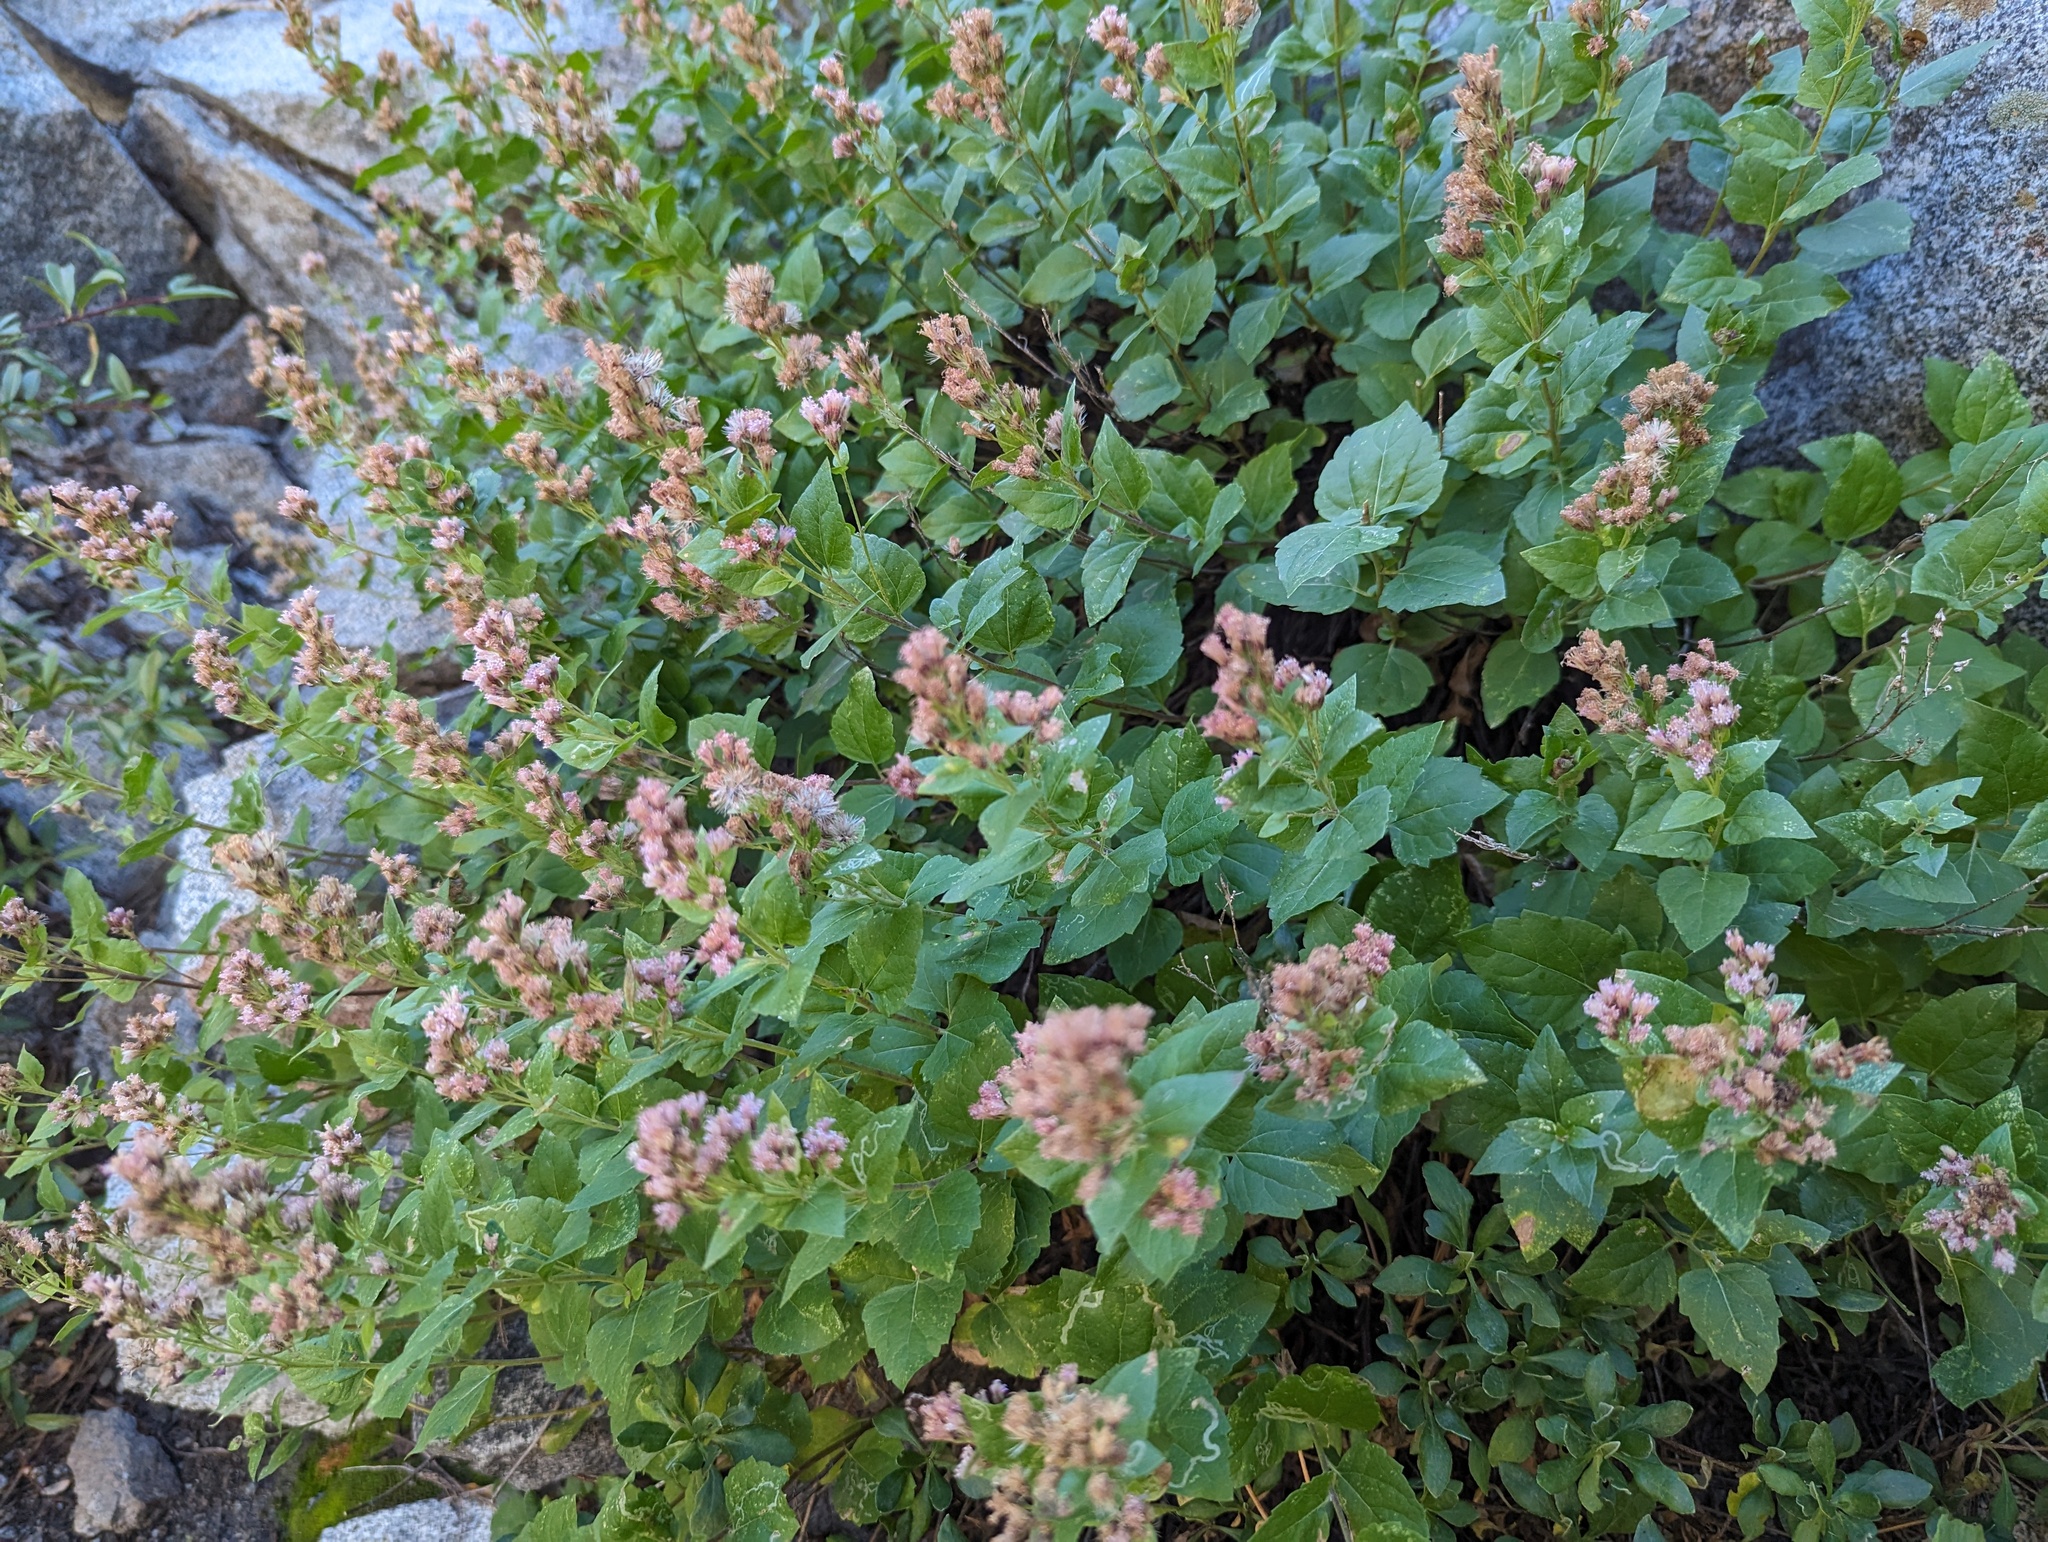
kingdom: Plantae
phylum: Tracheophyta
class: Magnoliopsida
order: Asterales
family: Asteraceae
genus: Ageratina
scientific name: Ageratina occidentalis
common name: Western snakeroot
